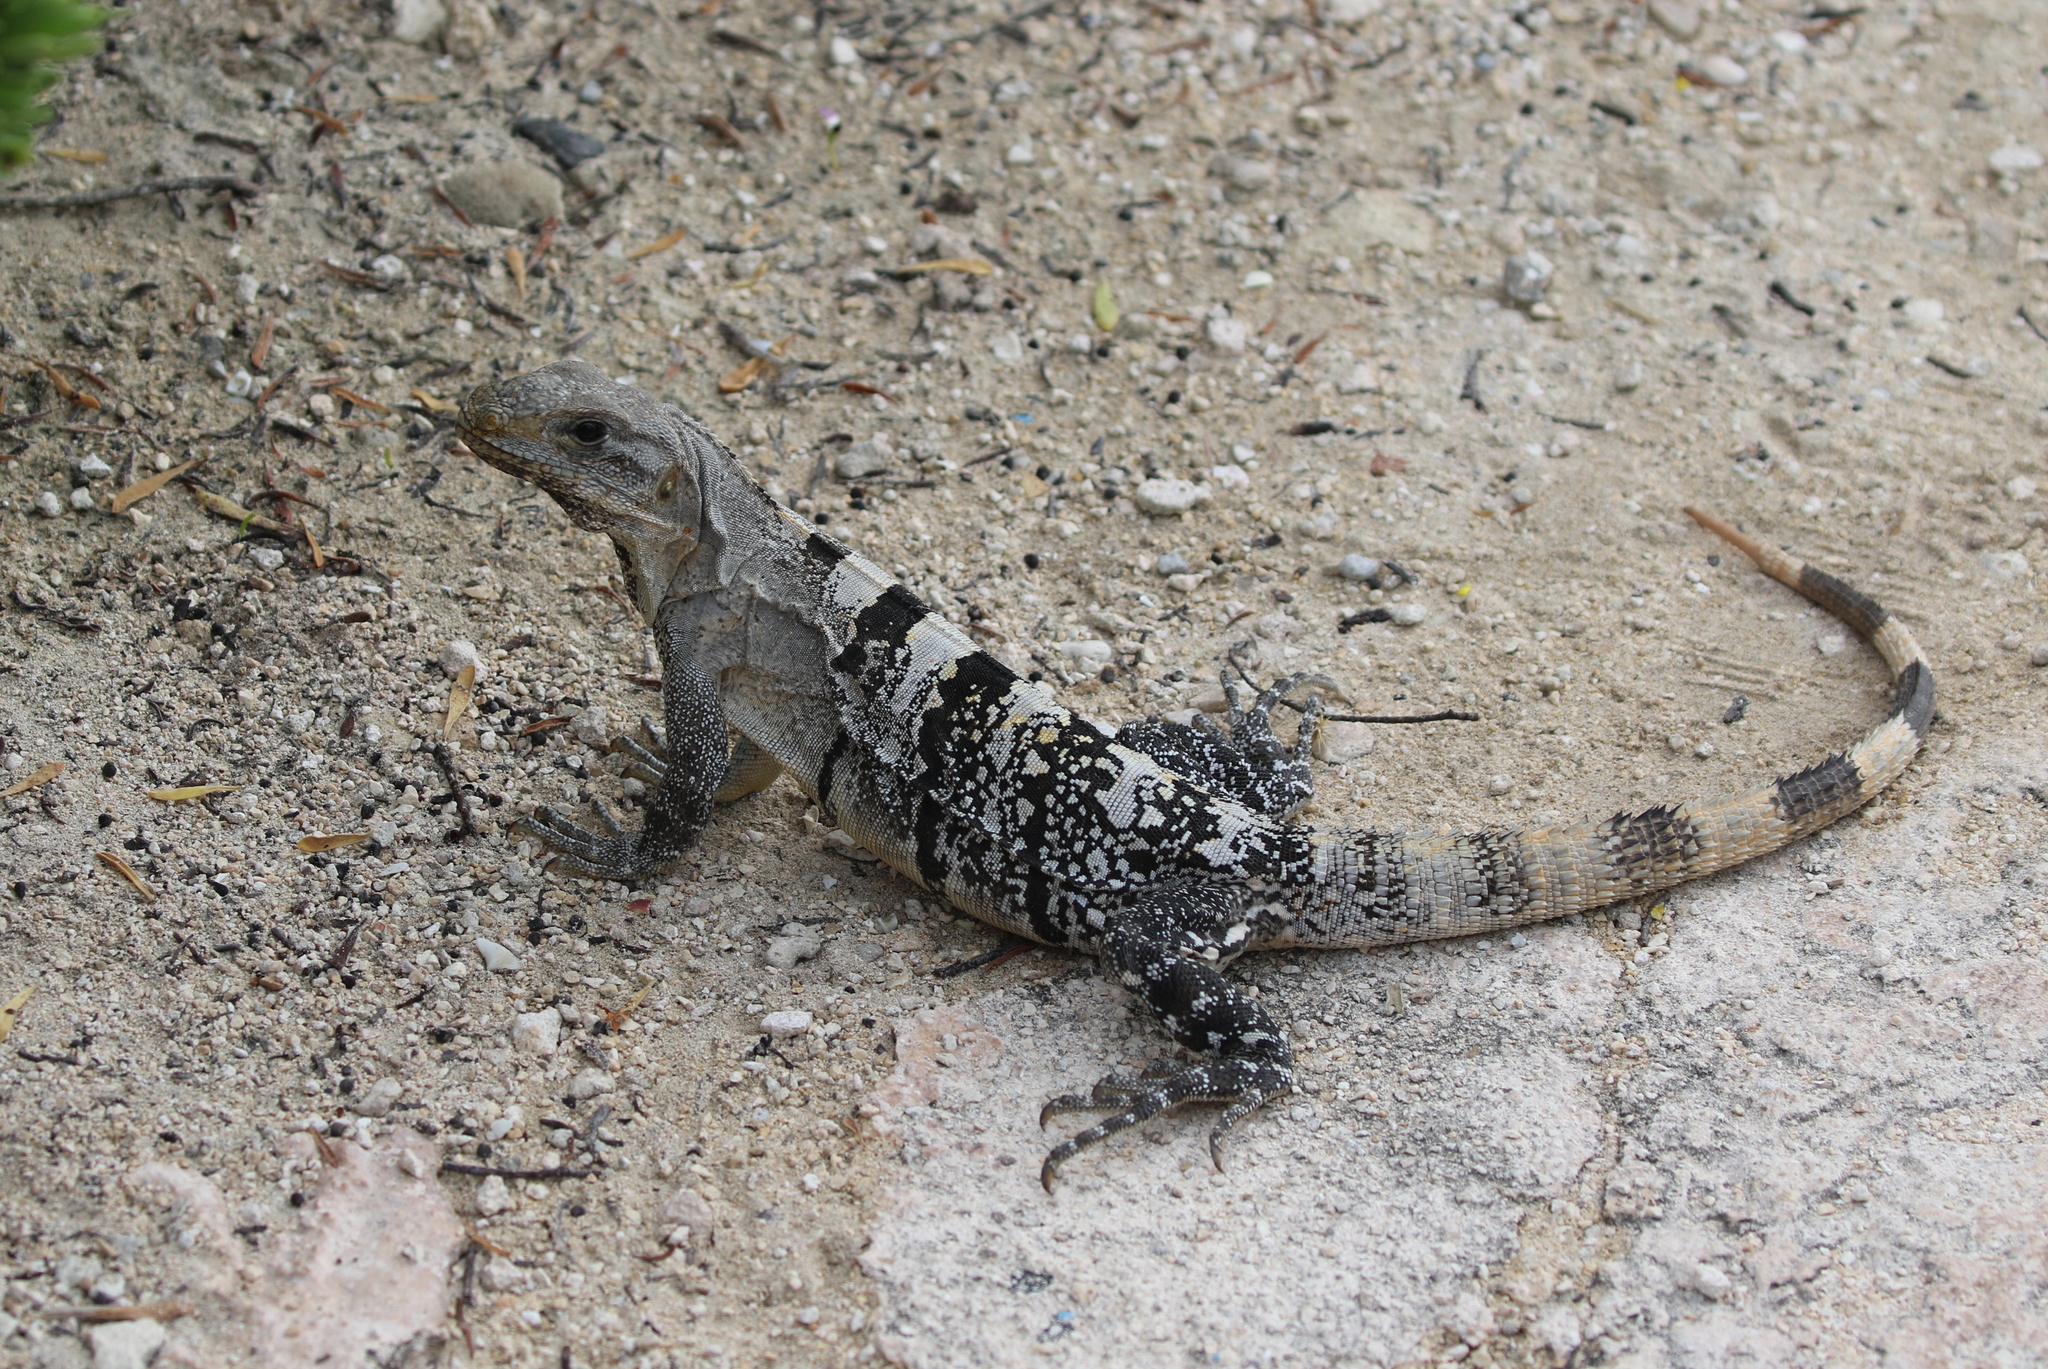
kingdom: Animalia
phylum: Chordata
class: Squamata
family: Iguanidae
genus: Ctenosaura
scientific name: Ctenosaura similis
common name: Black spiny-tailed iguana
